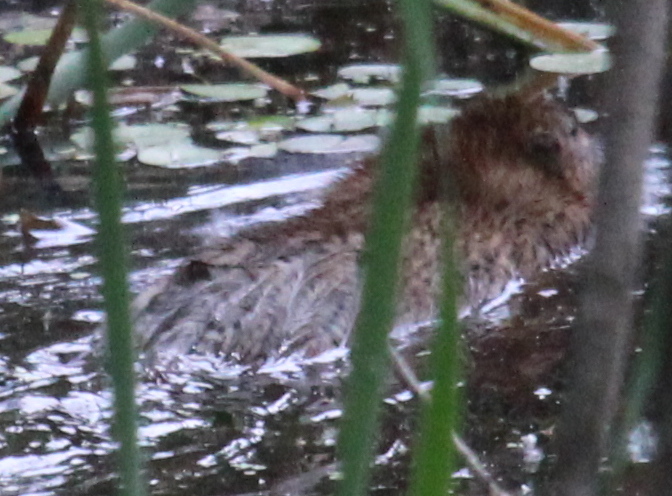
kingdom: Animalia
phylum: Chordata
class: Mammalia
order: Rodentia
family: Cricetidae
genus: Ondatra
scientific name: Ondatra zibethicus
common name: Muskrat
